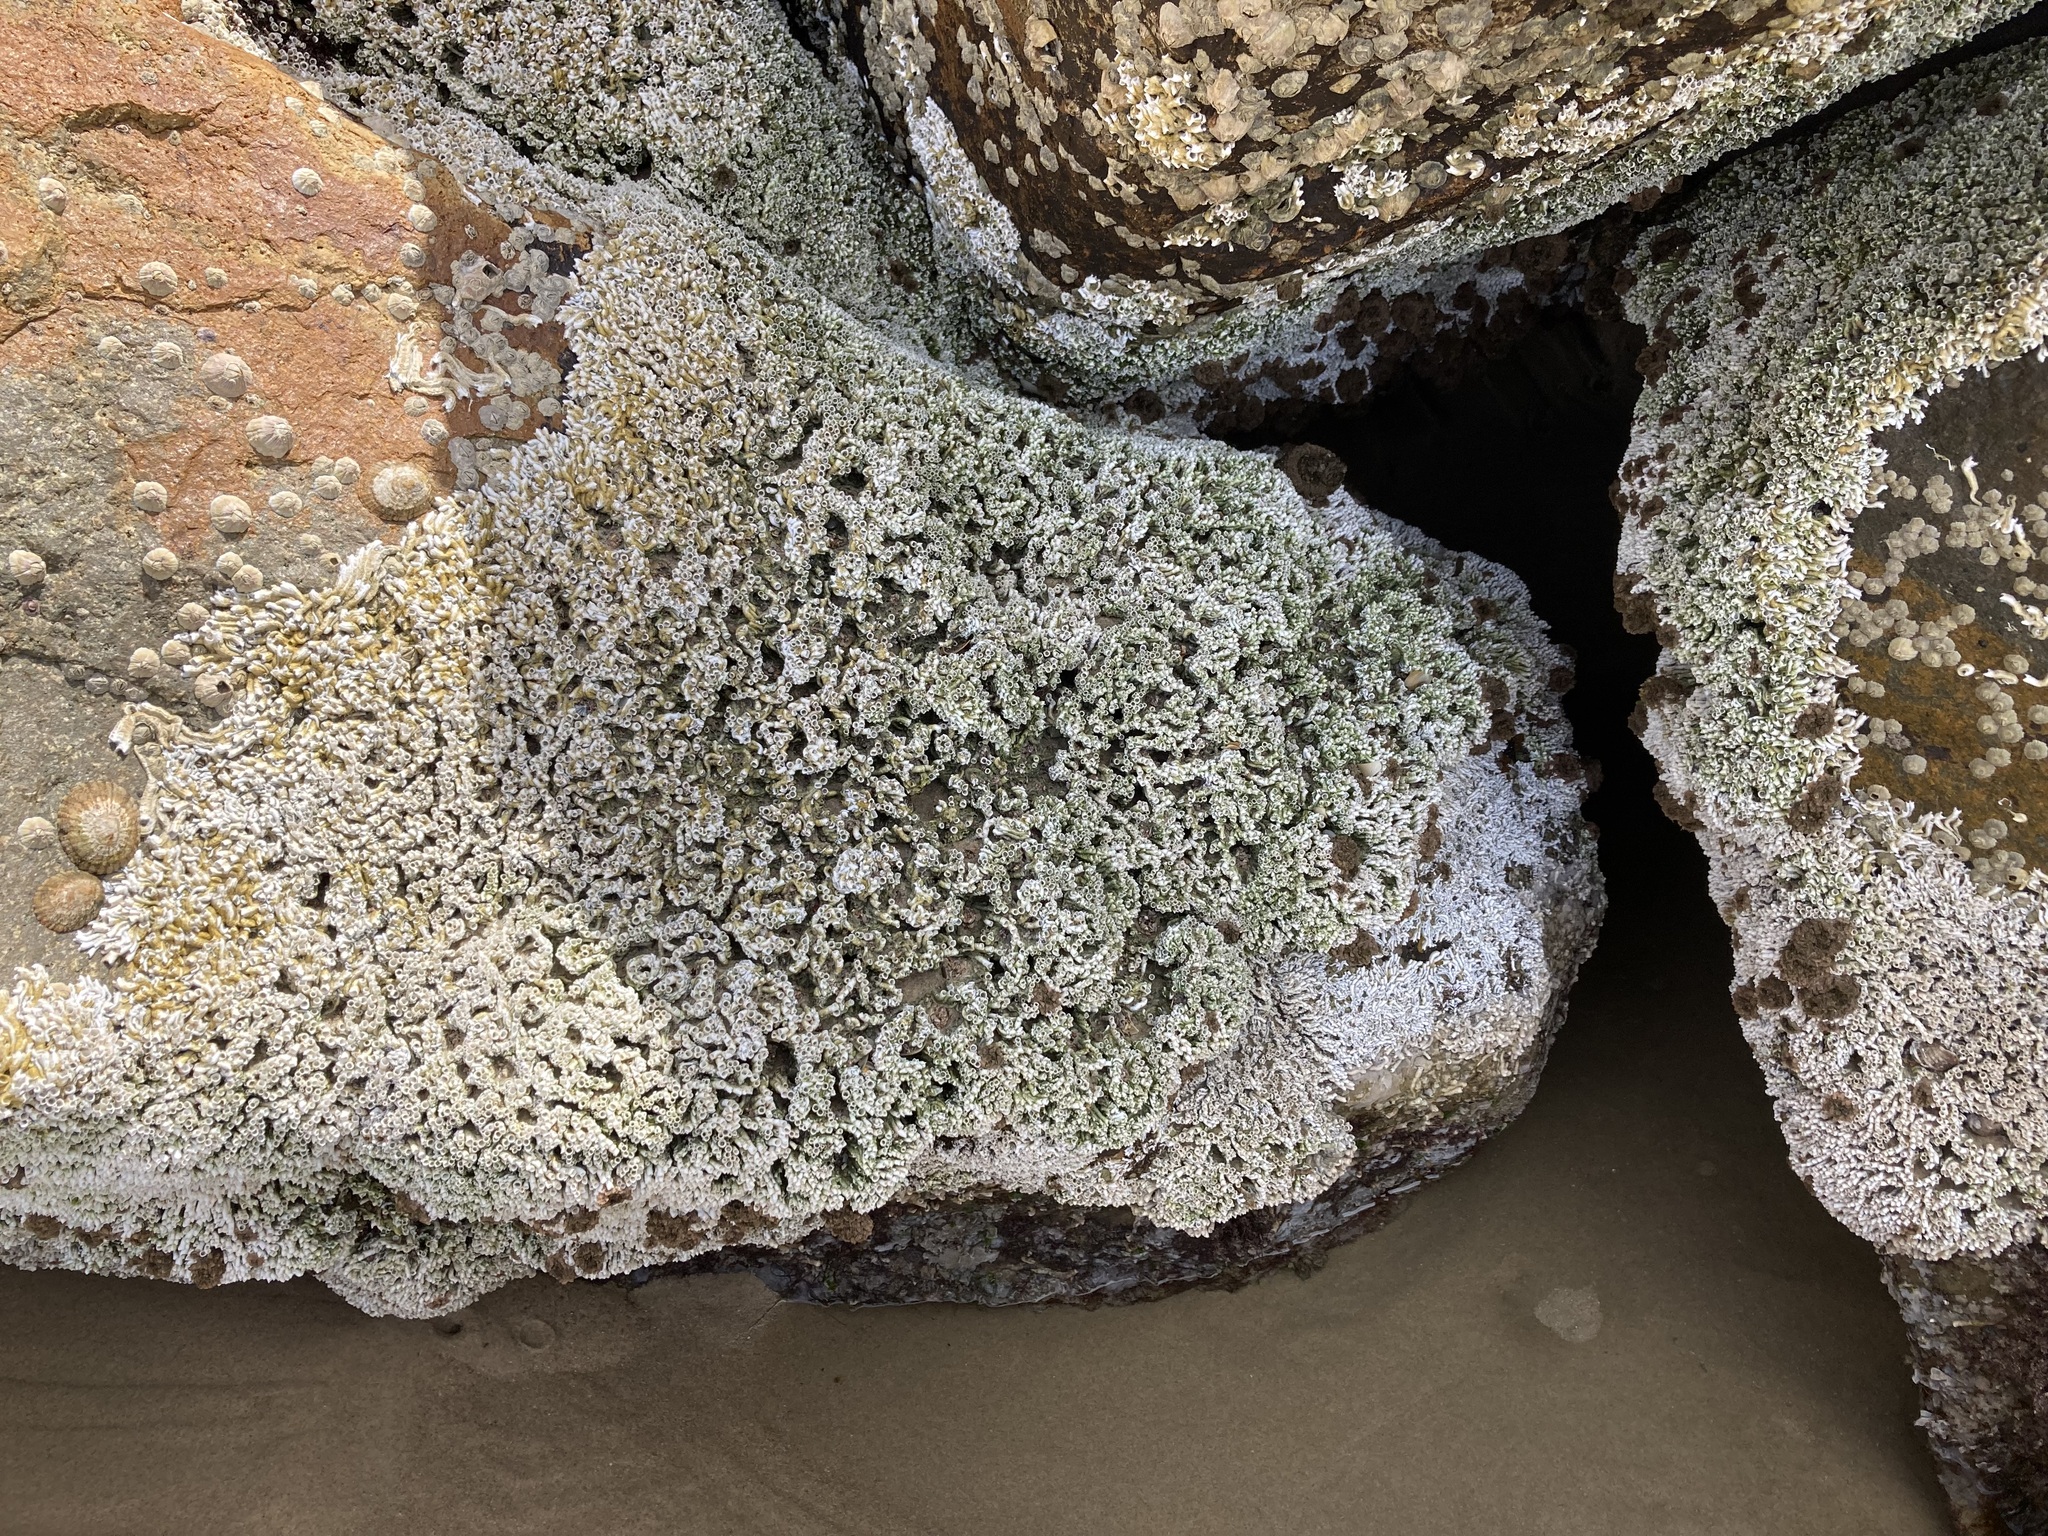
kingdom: Animalia
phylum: Annelida
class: Polychaeta
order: Sabellida
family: Serpulidae
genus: Galeolaria
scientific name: Galeolaria gemineoa
